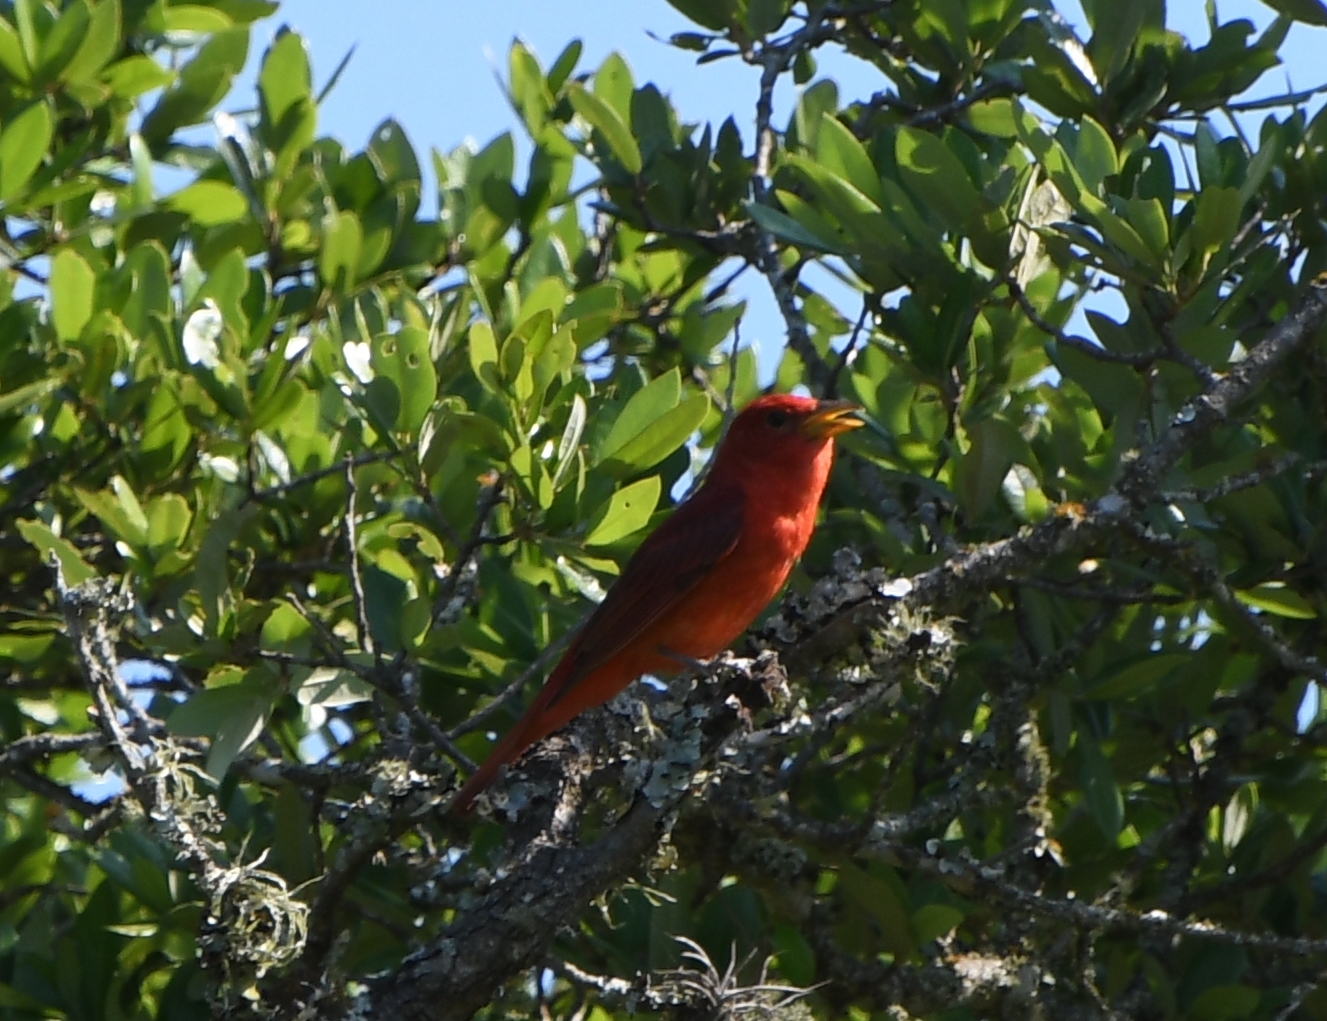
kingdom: Animalia
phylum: Chordata
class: Aves
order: Passeriformes
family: Cardinalidae
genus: Piranga
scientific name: Piranga rubra
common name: Summer tanager
